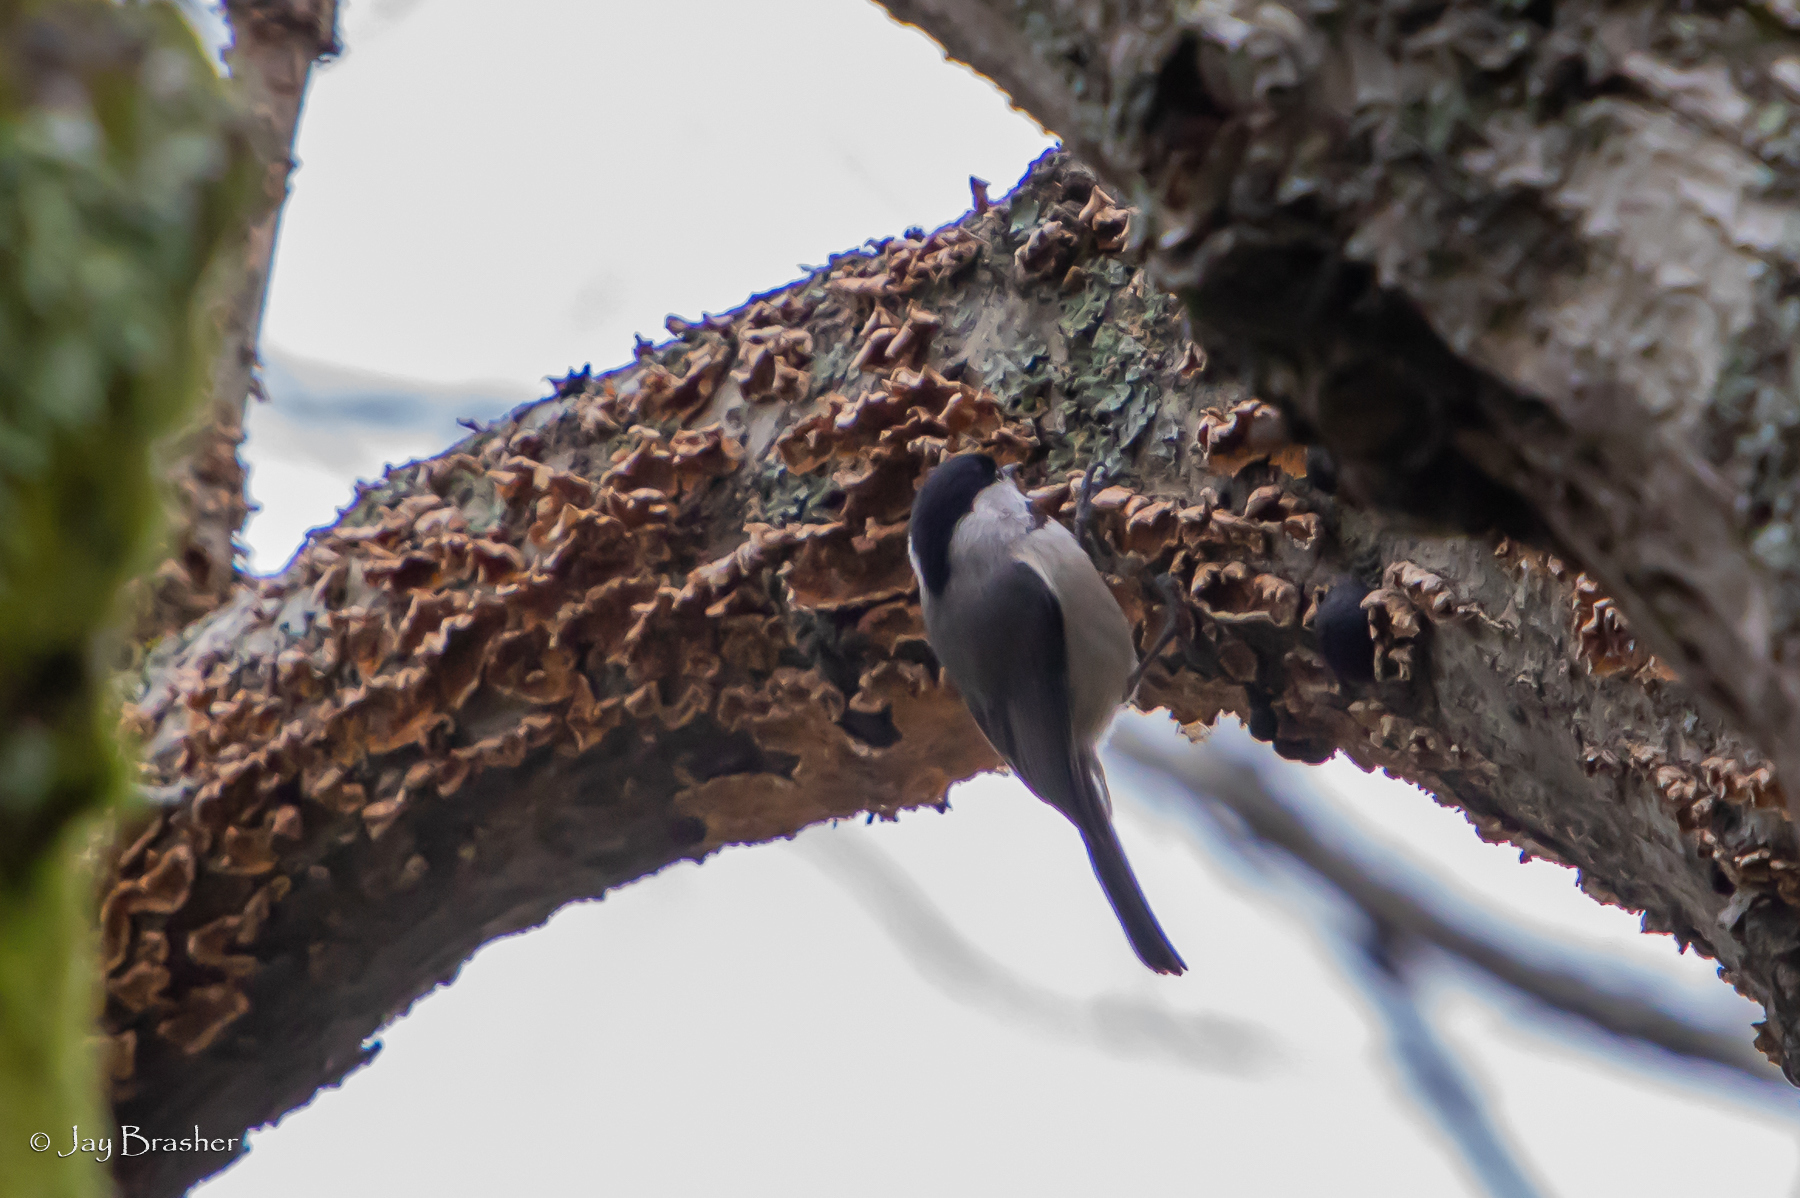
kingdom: Animalia
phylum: Chordata
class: Aves
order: Passeriformes
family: Paridae
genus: Poecile
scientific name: Poecile carolinensis
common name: Carolina chickadee
